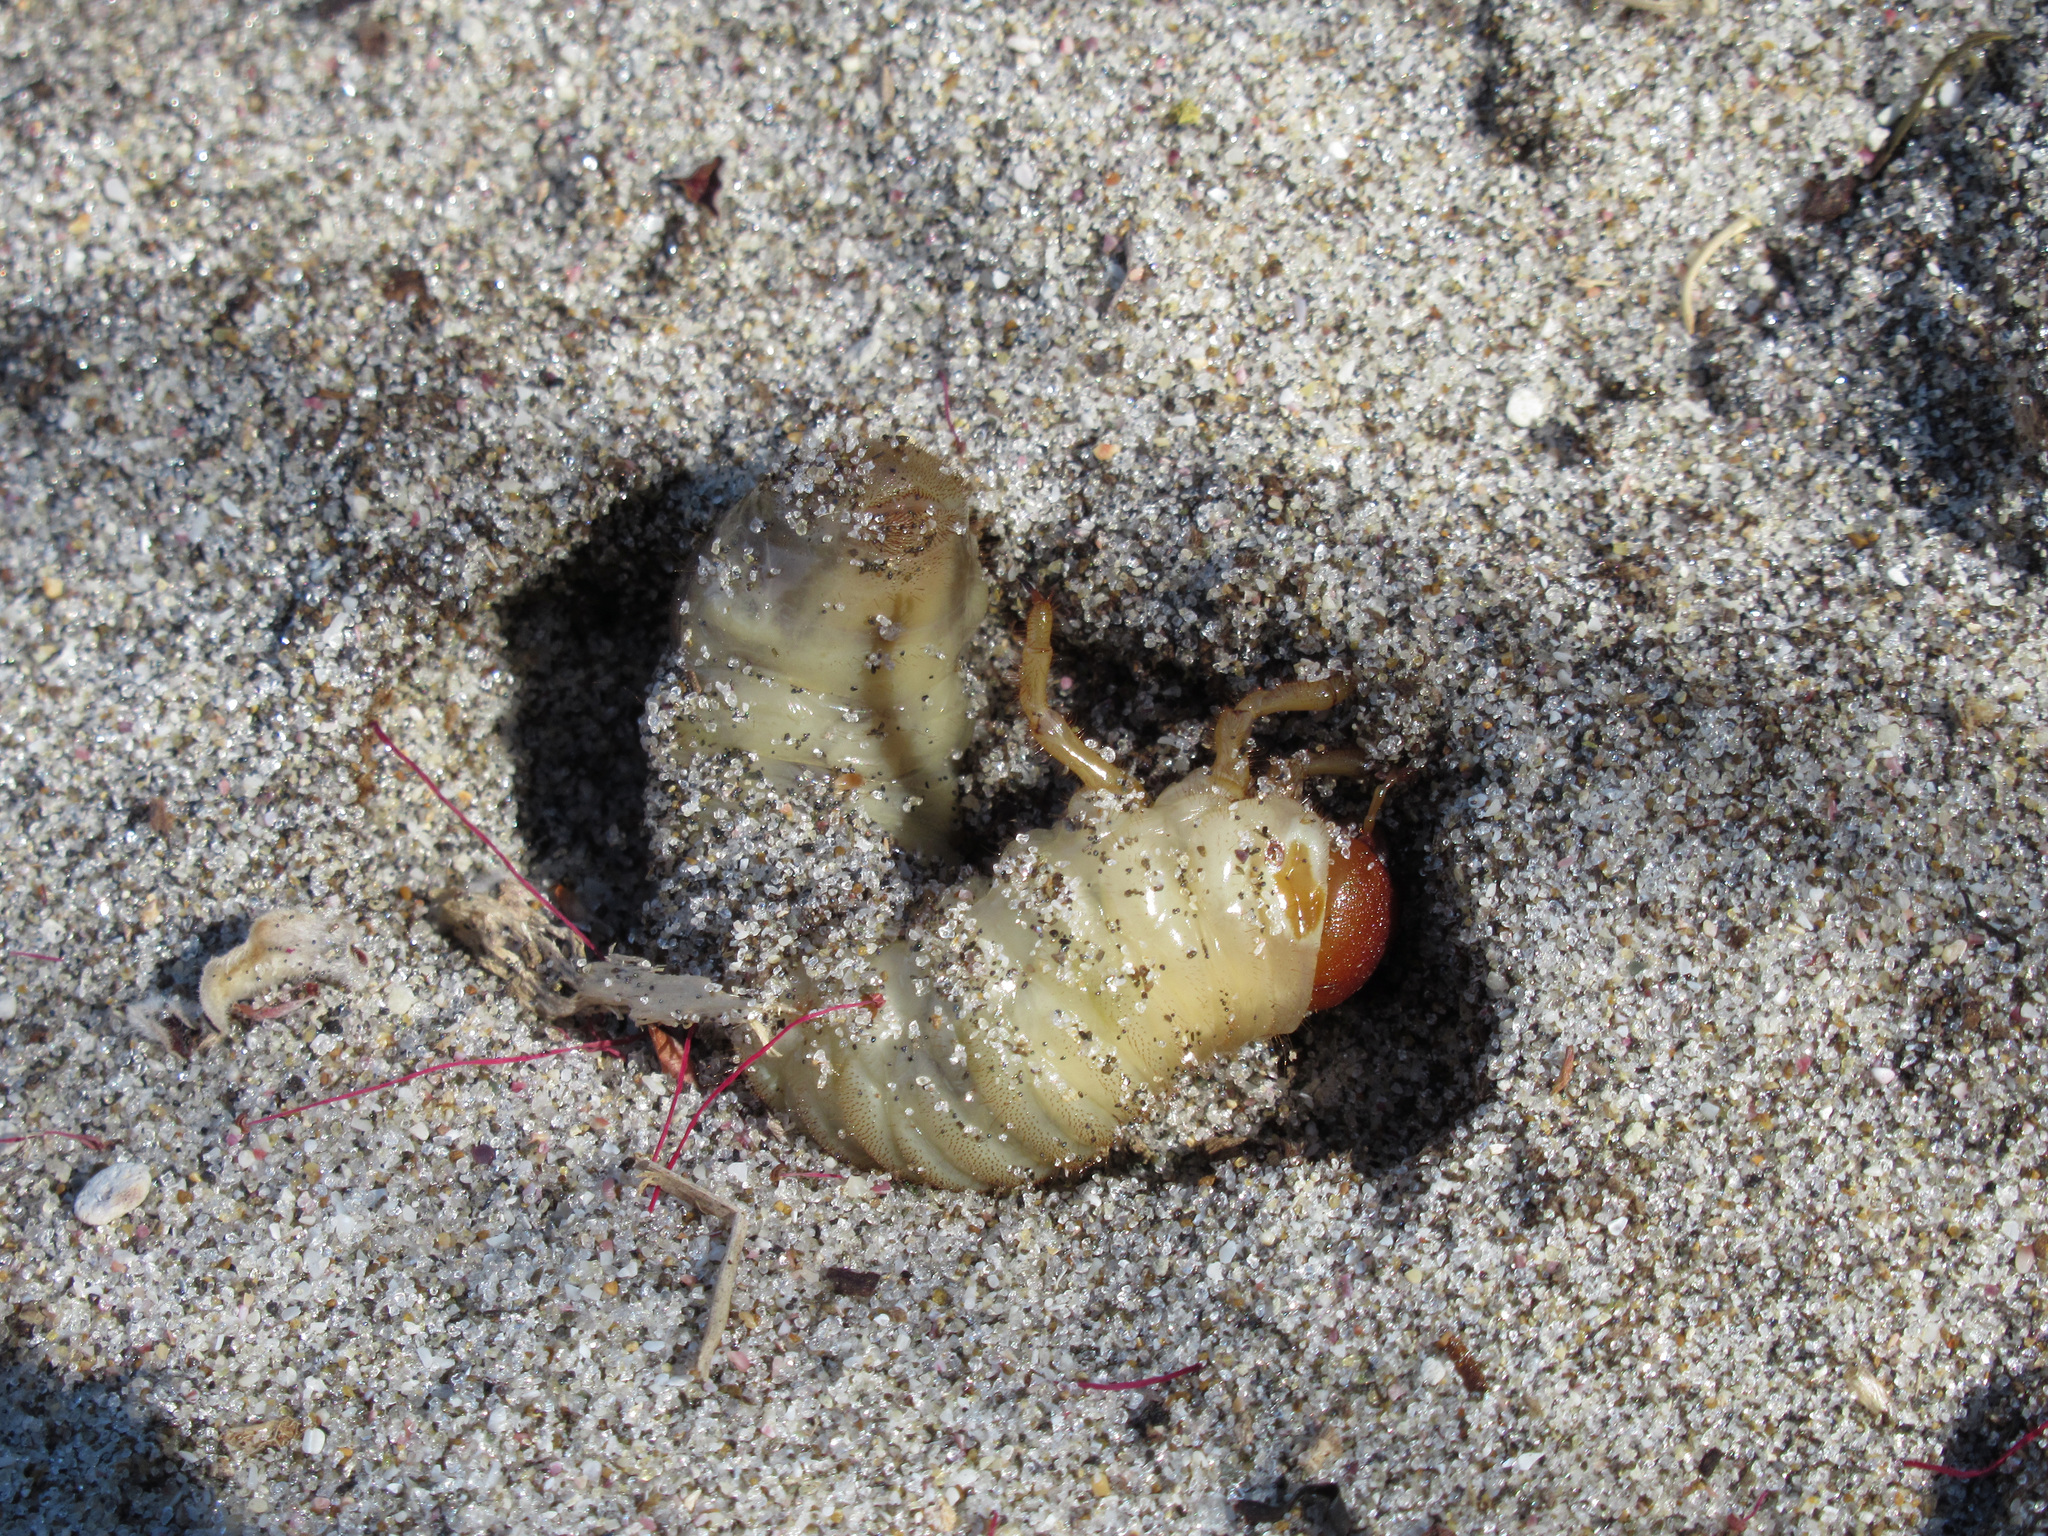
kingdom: Animalia
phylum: Arthropoda
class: Insecta
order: Coleoptera
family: Scarabaeidae
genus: Pericoptus
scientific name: Pericoptus truncatus
